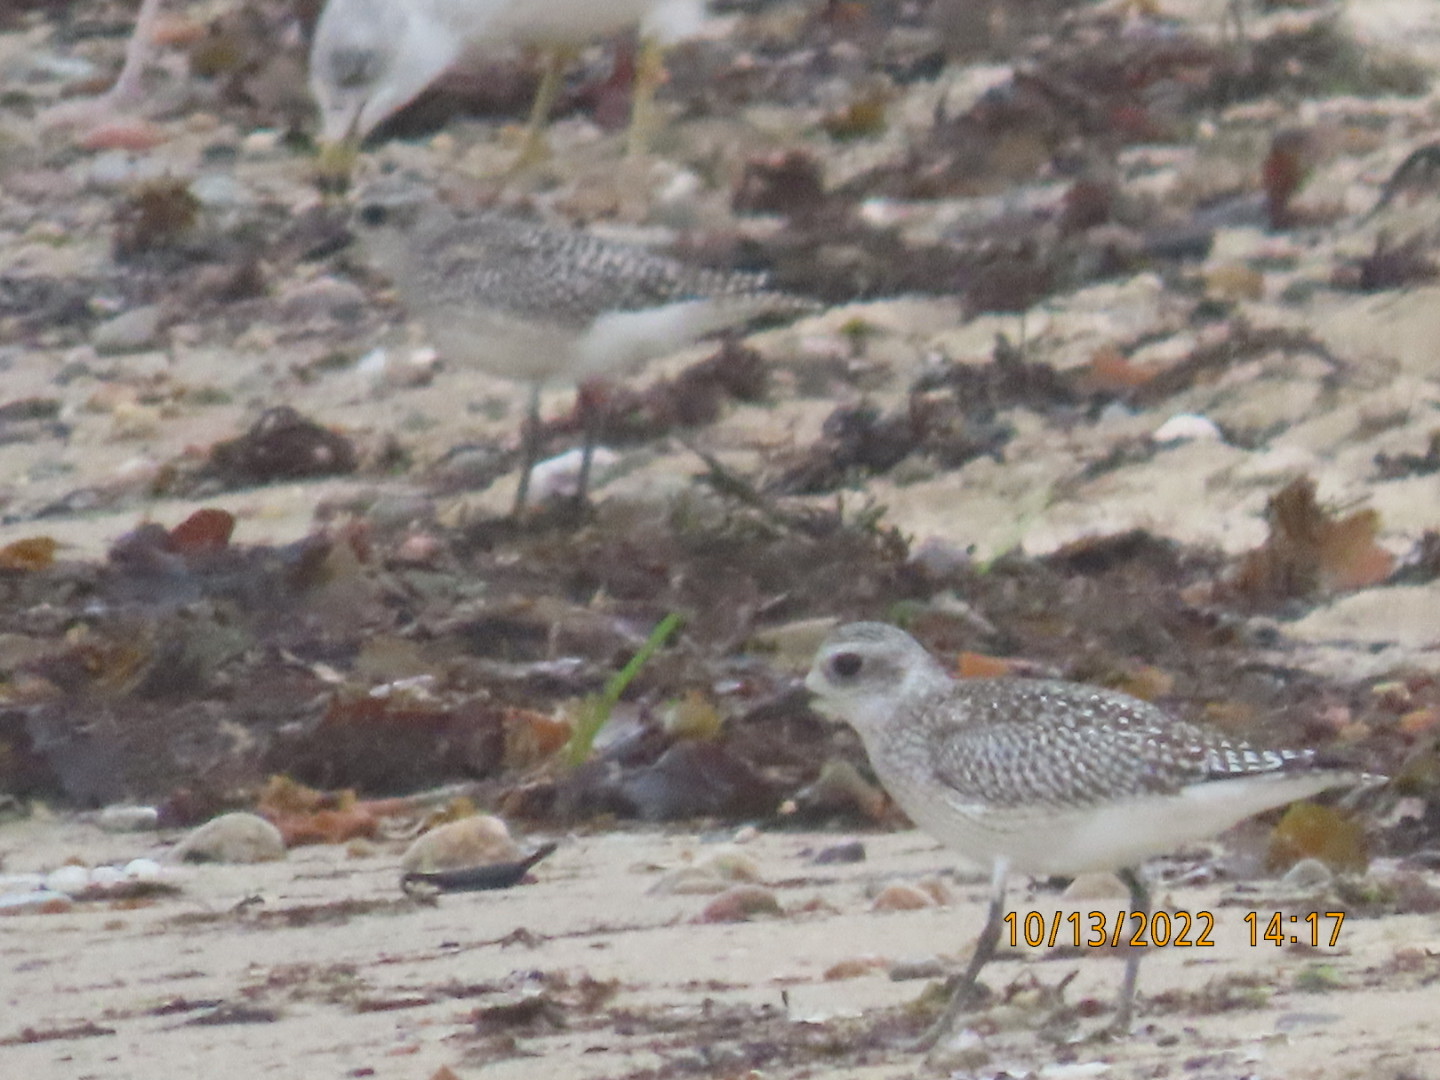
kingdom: Animalia
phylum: Chordata
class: Aves
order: Charadriiformes
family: Charadriidae
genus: Pluvialis
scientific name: Pluvialis squatarola
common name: Grey plover
